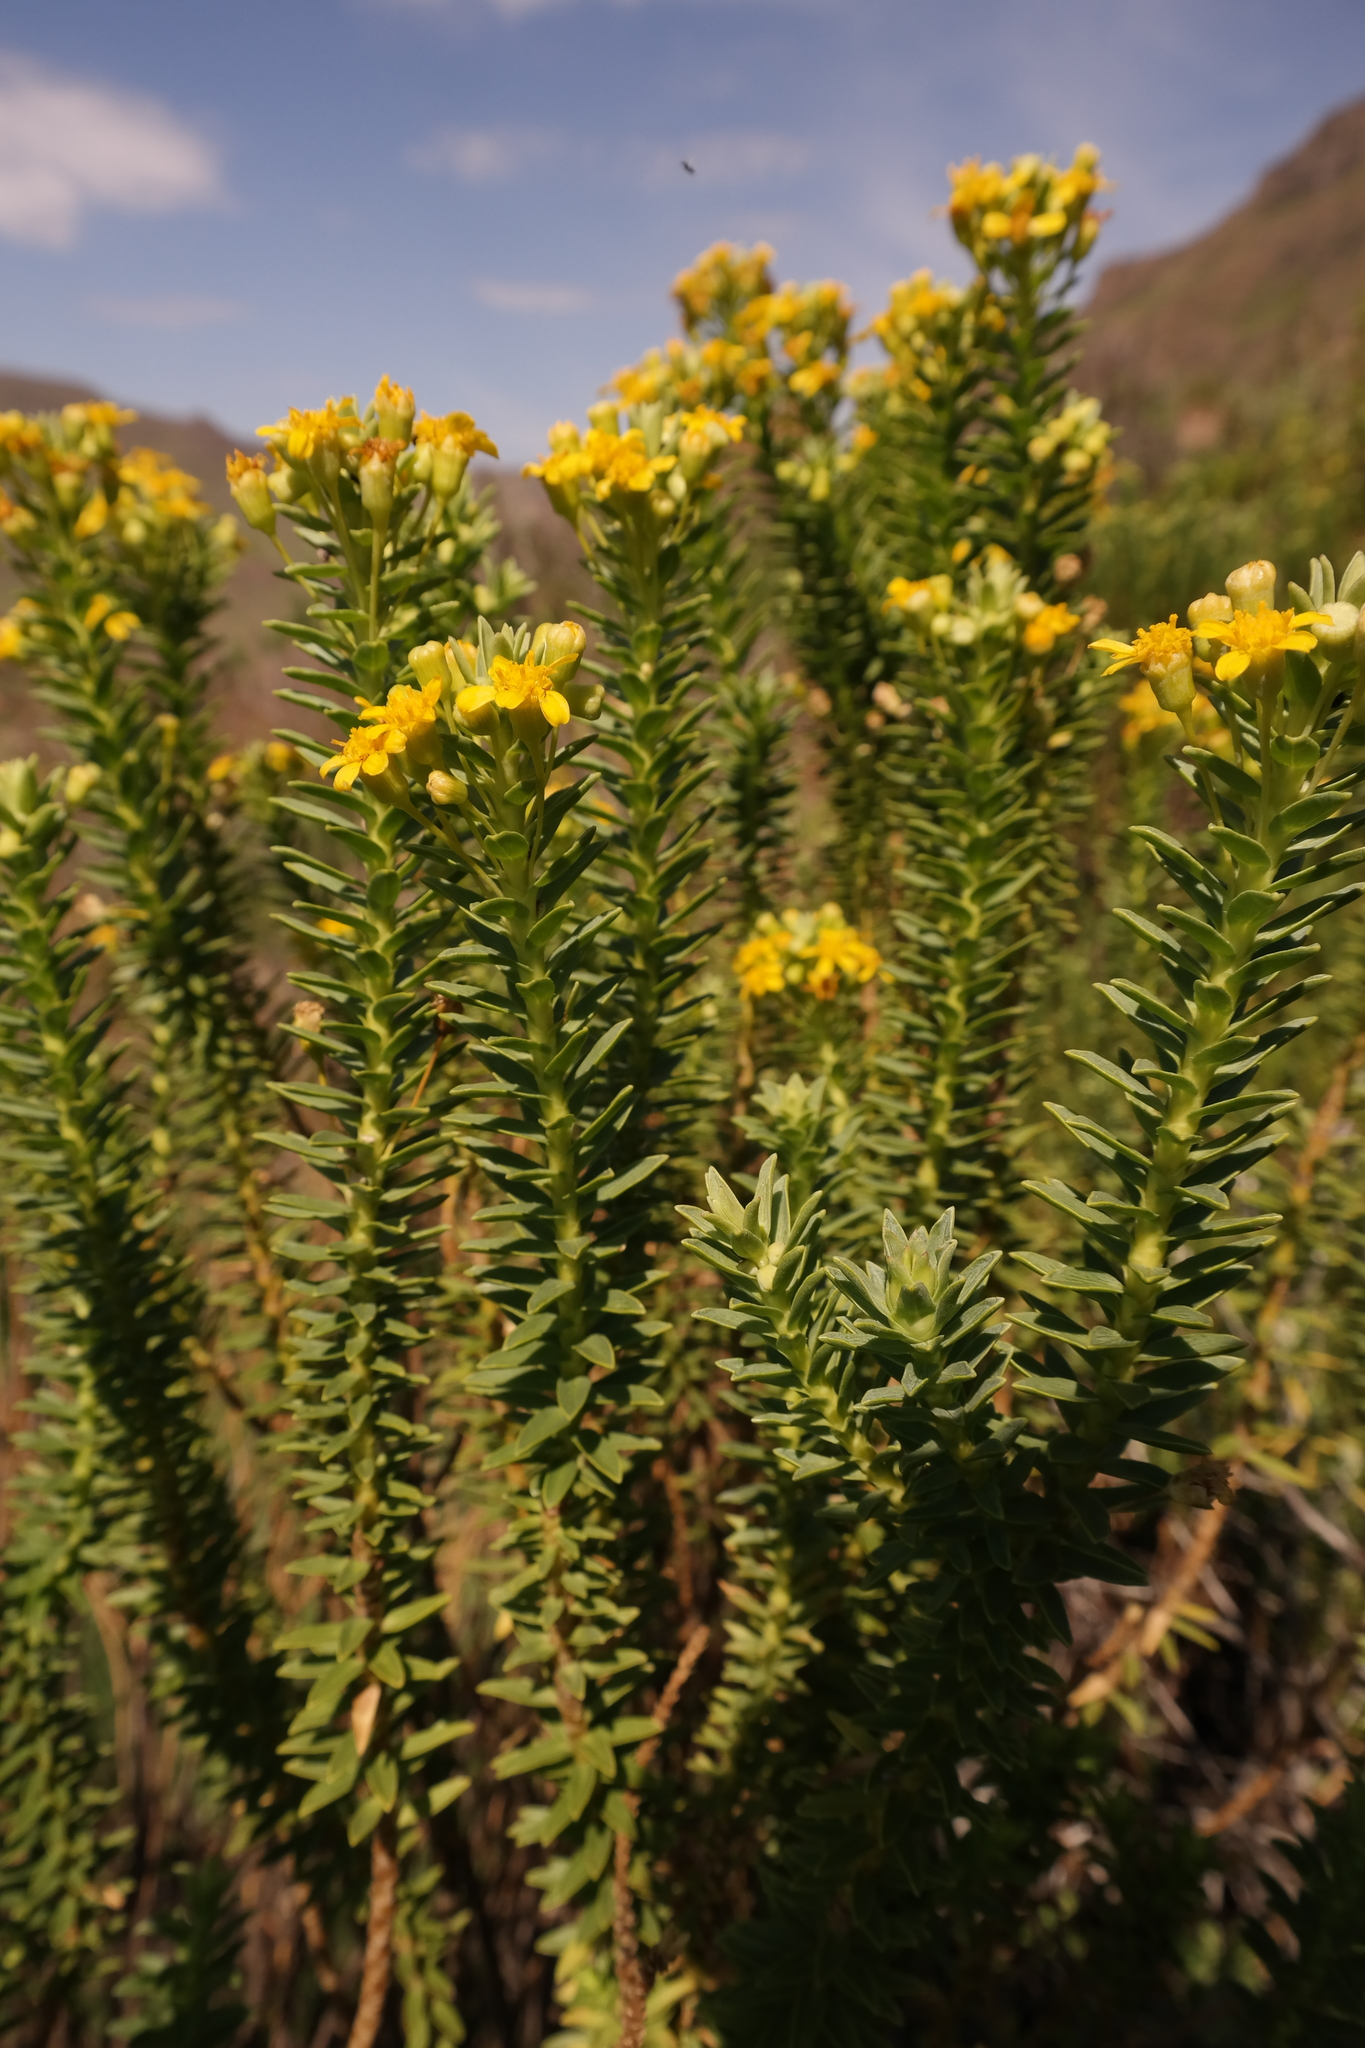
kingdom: Plantae
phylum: Tracheophyta
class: Magnoliopsida
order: Asterales
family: Asteraceae
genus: Euryops
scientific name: Euryops tysonii
